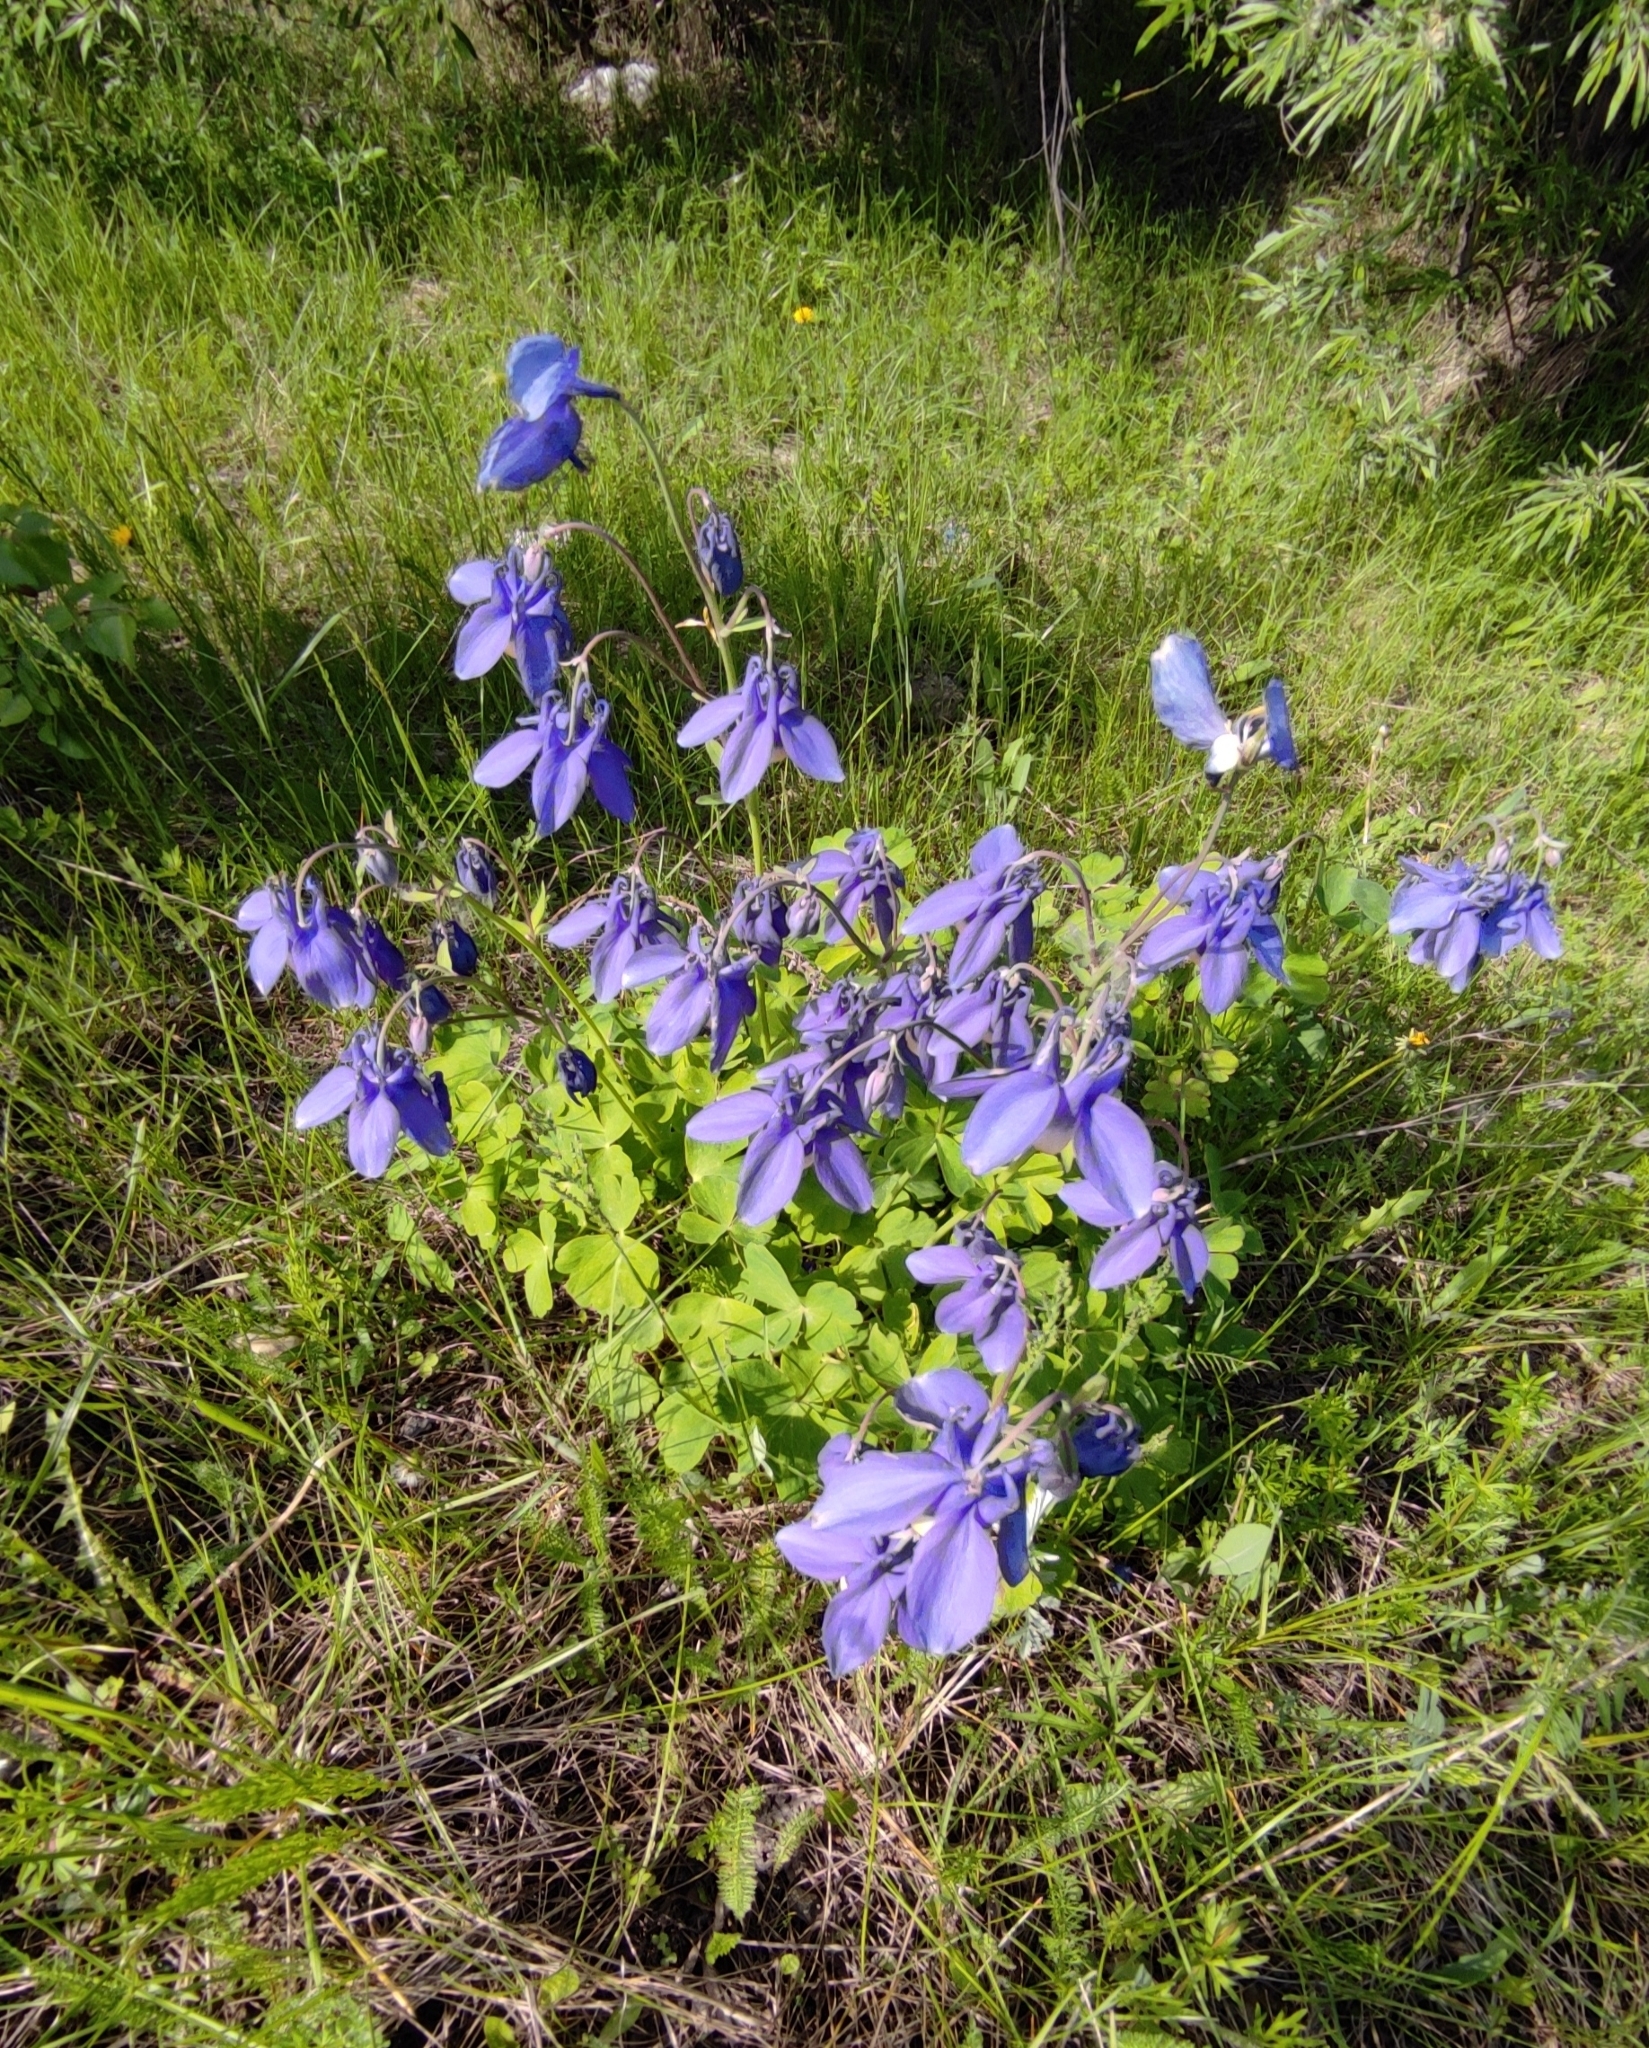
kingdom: Plantae
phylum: Tracheophyta
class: Magnoliopsida
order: Ranunculales
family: Ranunculaceae
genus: Aquilegia
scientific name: Aquilegia sibirica
